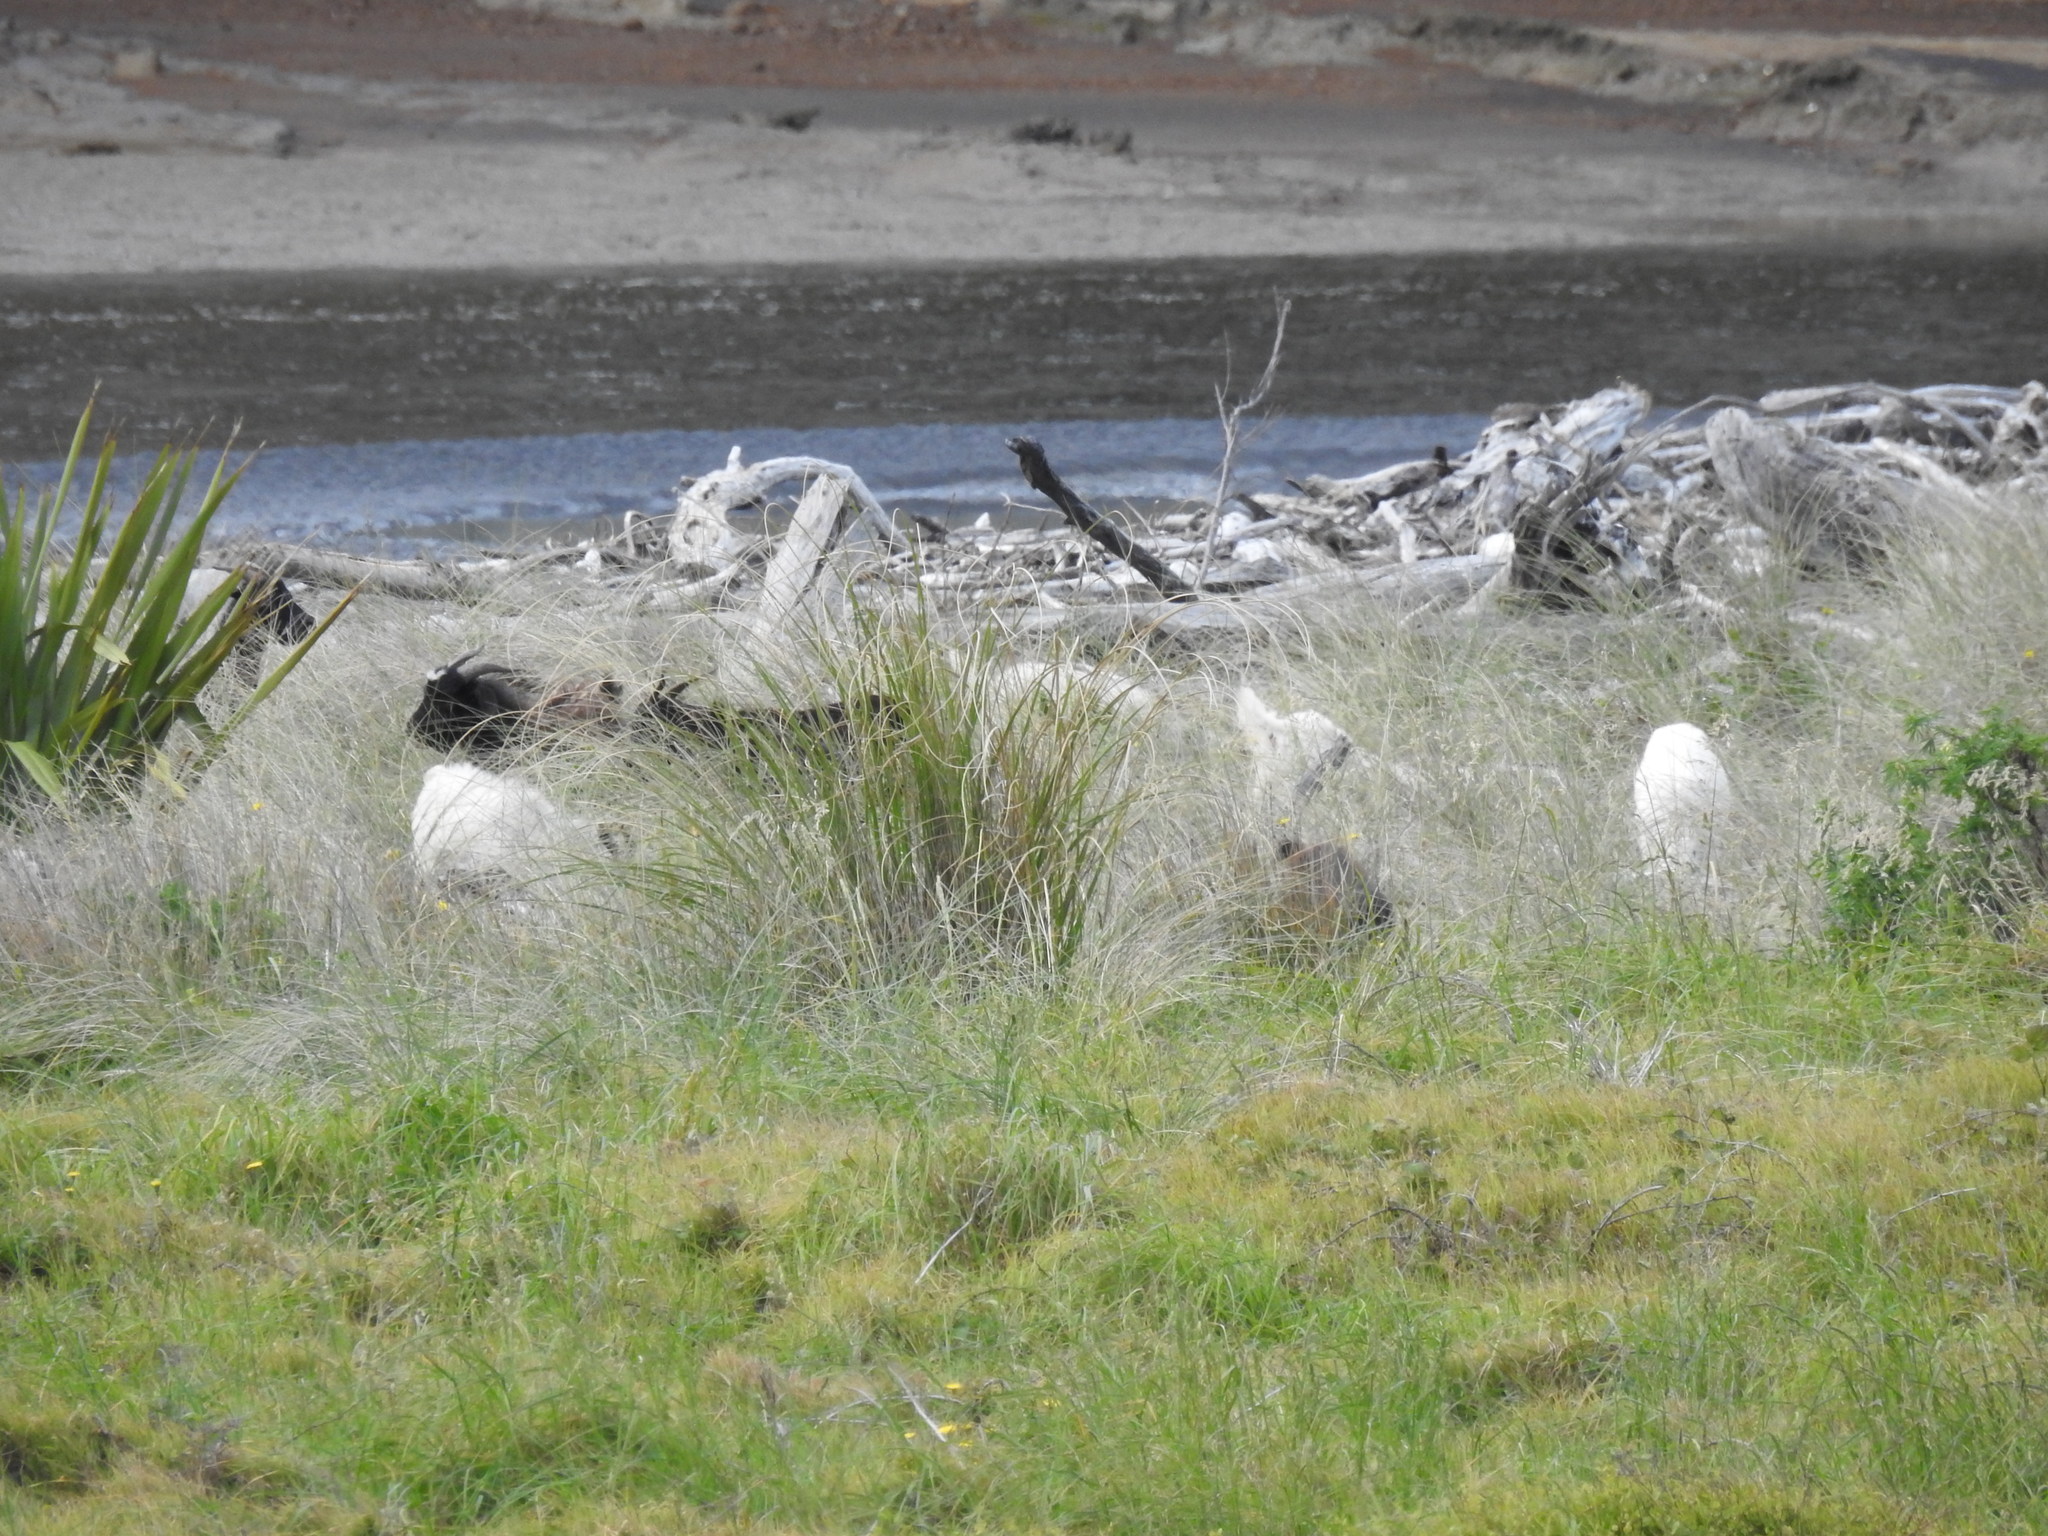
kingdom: Animalia
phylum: Chordata
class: Mammalia
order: Artiodactyla
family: Bovidae
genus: Capra
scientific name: Capra hircus
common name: Domestic goat
